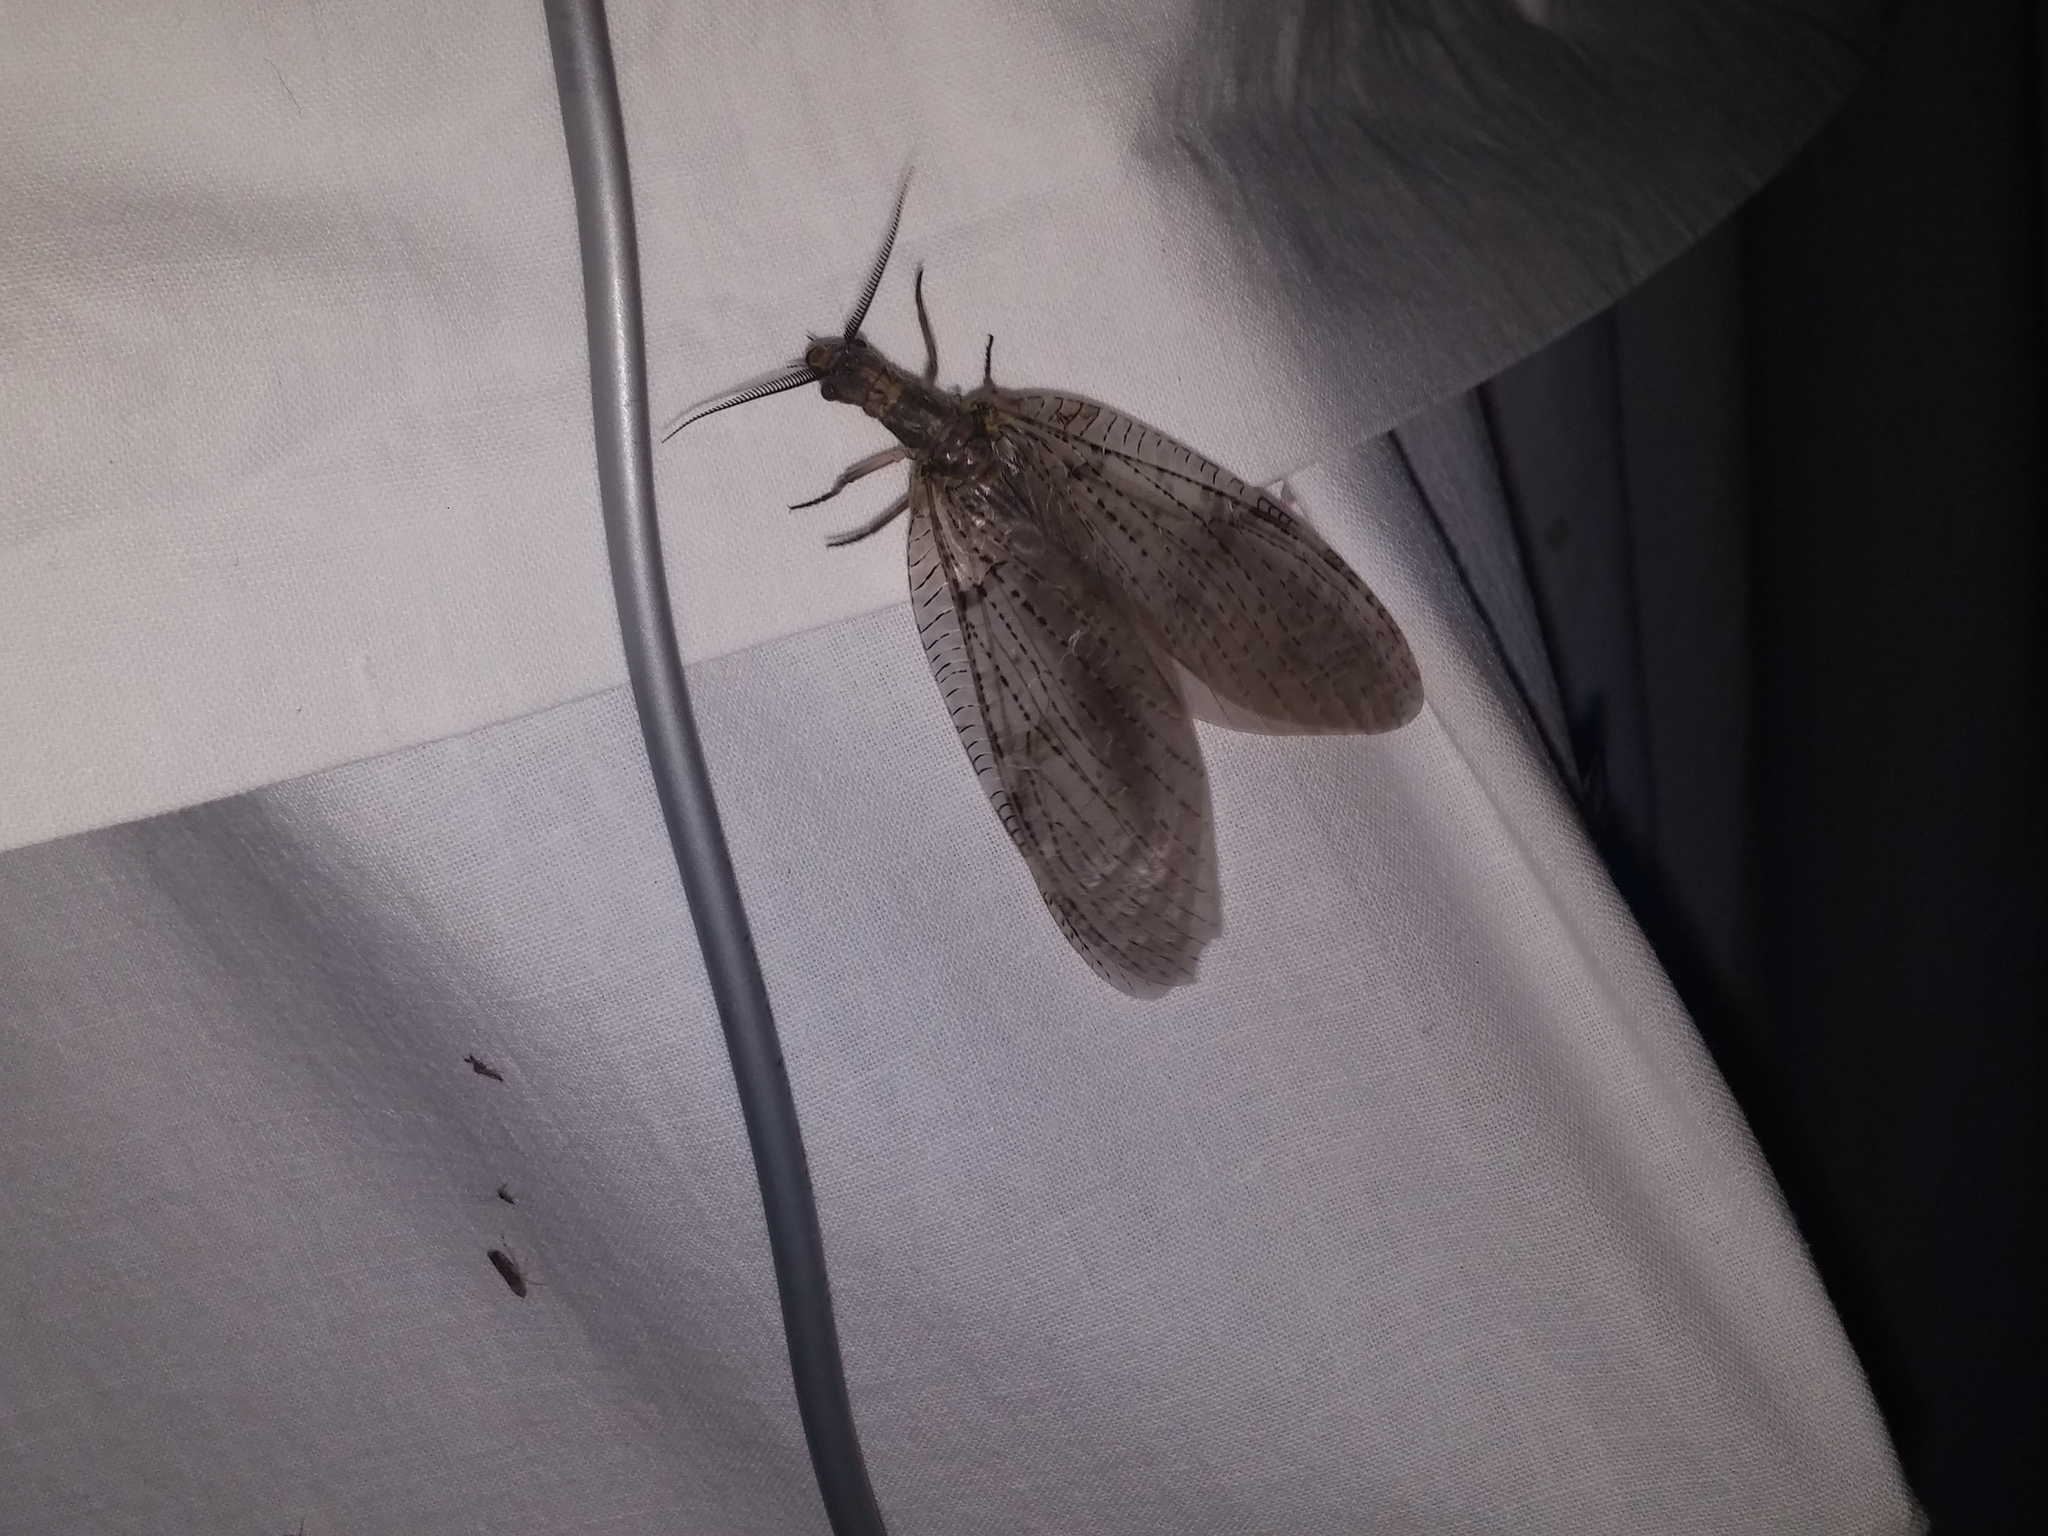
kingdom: Animalia
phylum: Arthropoda
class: Insecta
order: Megaloptera
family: Corydalidae
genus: Chauliodes
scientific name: Chauliodes pectinicornis
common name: Summer fishfly
